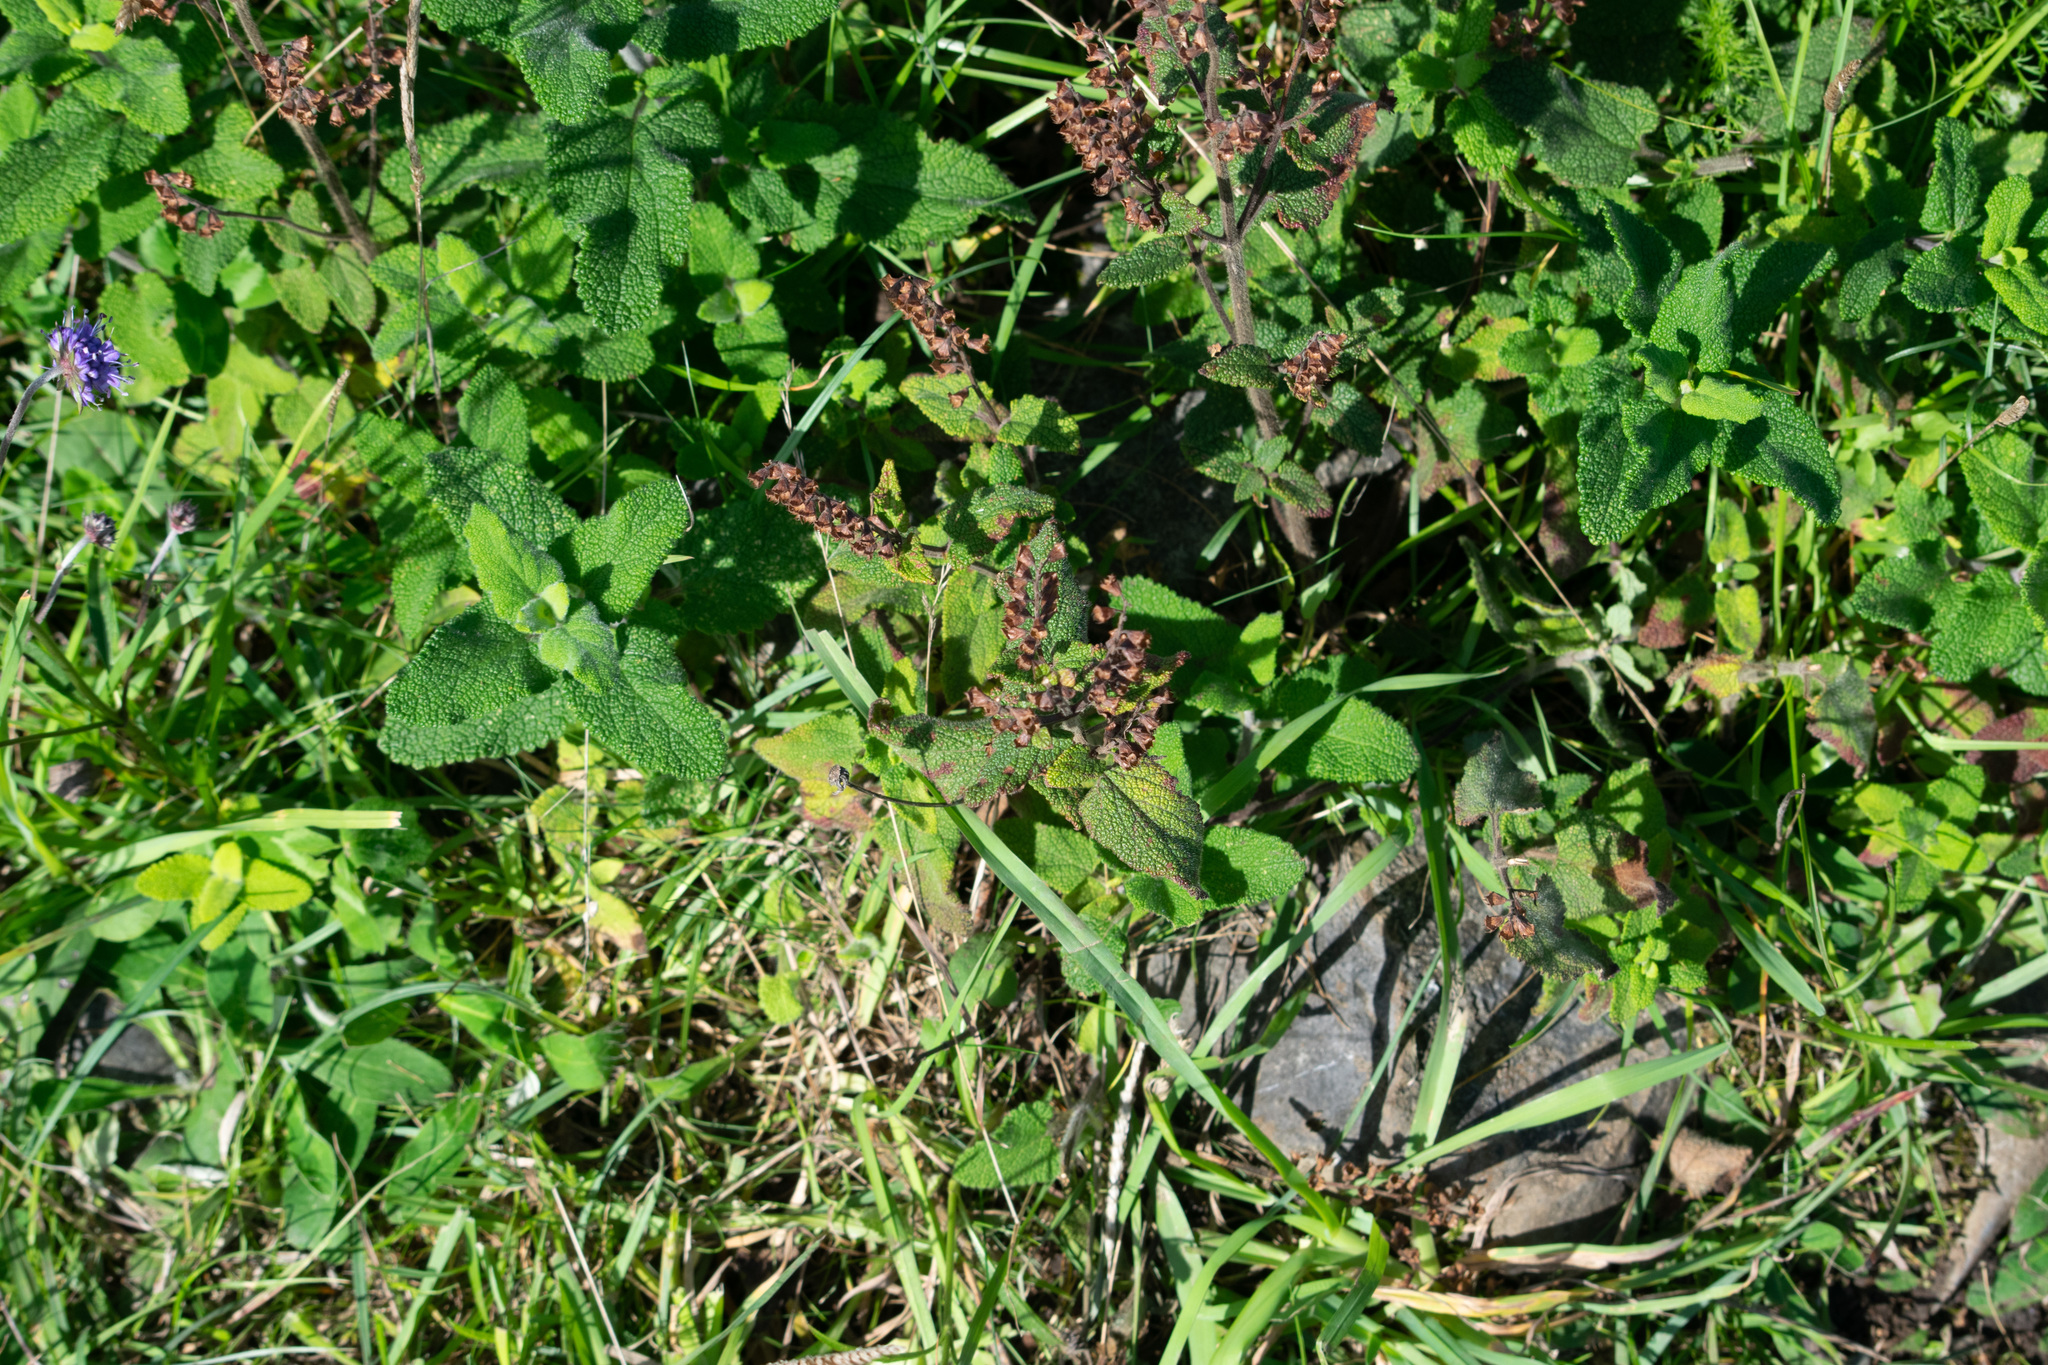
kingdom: Plantae
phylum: Tracheophyta
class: Magnoliopsida
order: Lamiales
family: Lamiaceae
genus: Teucrium
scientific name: Teucrium scorodonia
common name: Woodland germander
